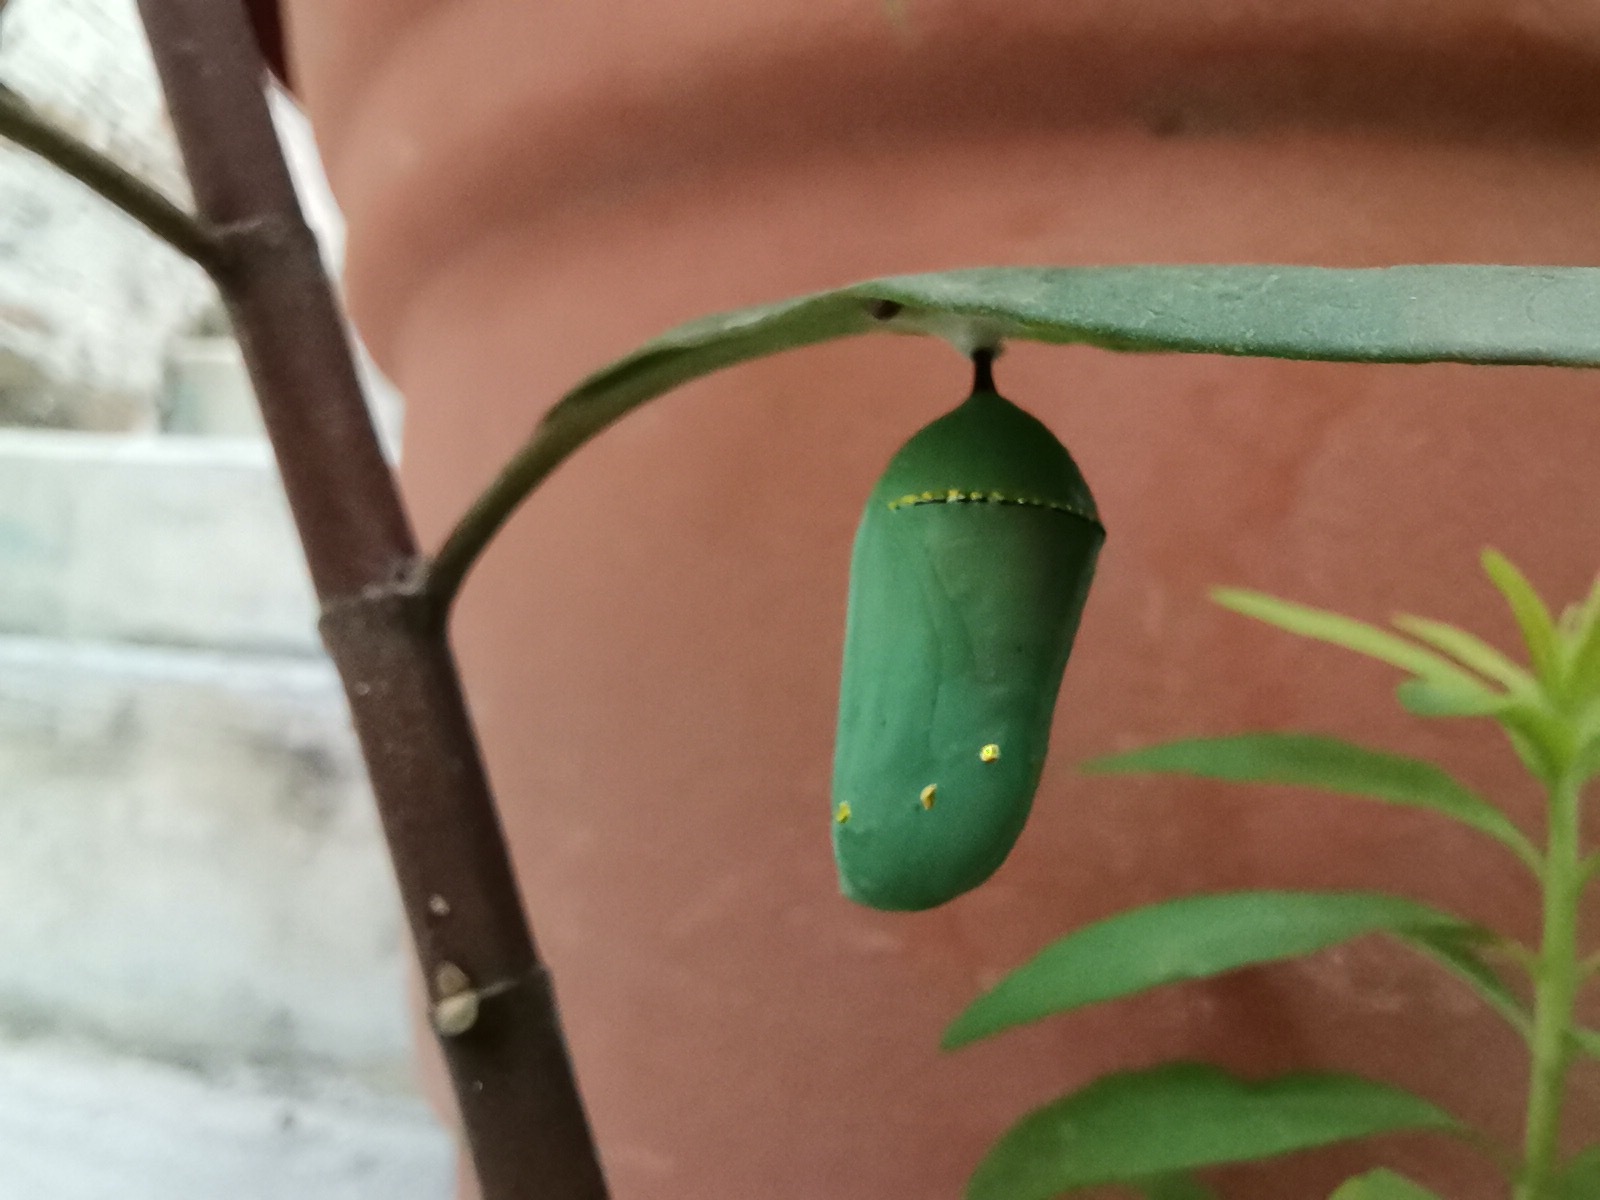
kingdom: Animalia
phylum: Arthropoda
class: Insecta
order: Lepidoptera
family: Nymphalidae
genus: Danaus
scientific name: Danaus plexippus
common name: Monarch
